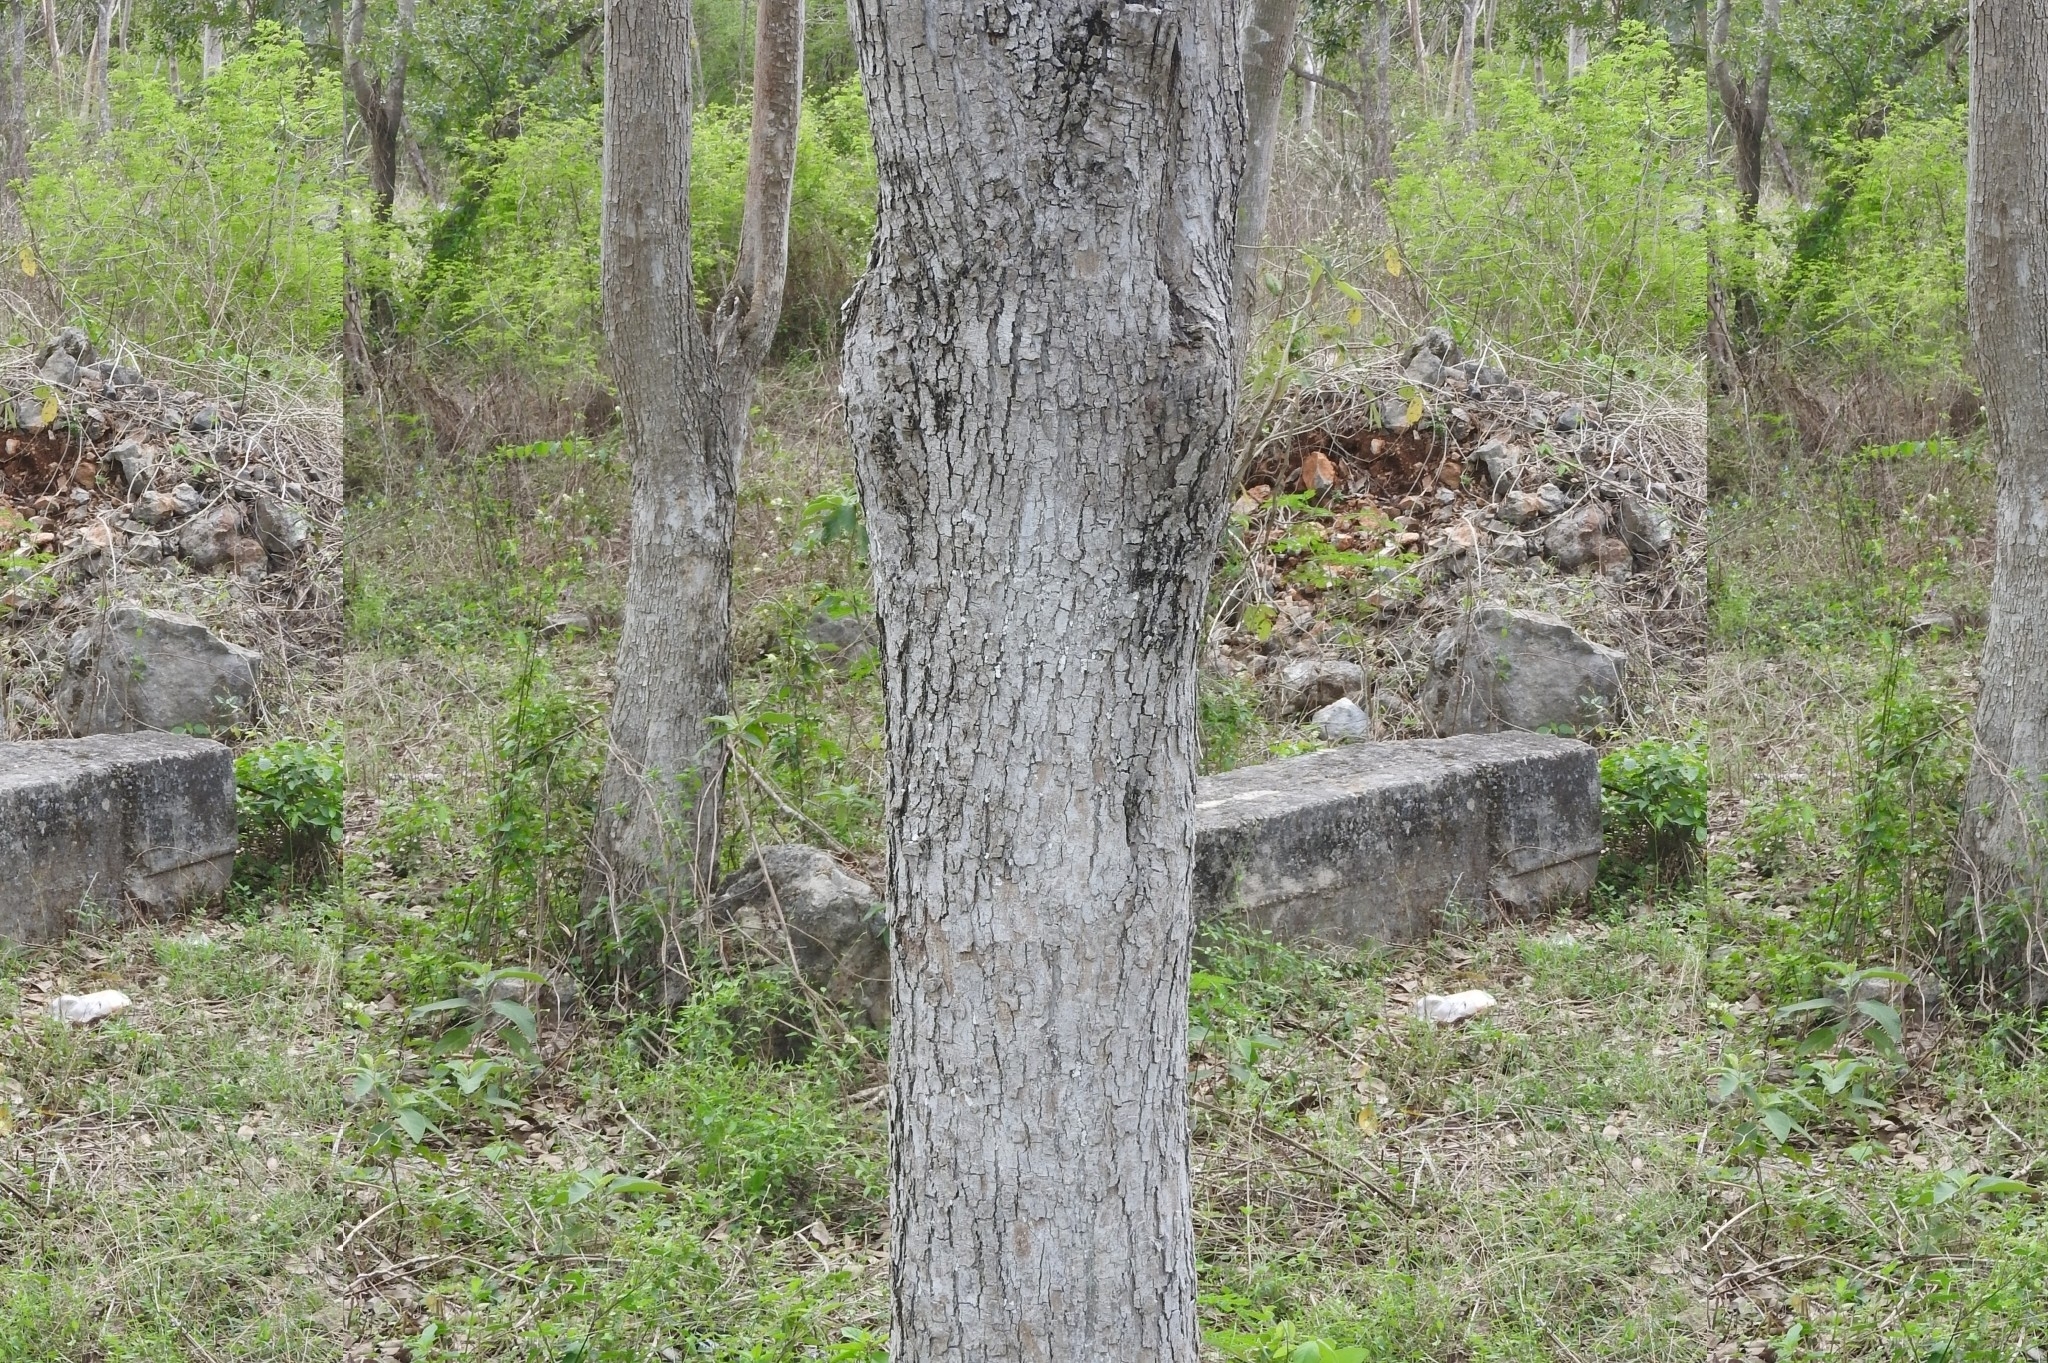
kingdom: Plantae
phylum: Tracheophyta
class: Magnoliopsida
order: Sapindales
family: Meliaceae
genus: Cedrela
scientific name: Cedrela odorata
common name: Red cedar
